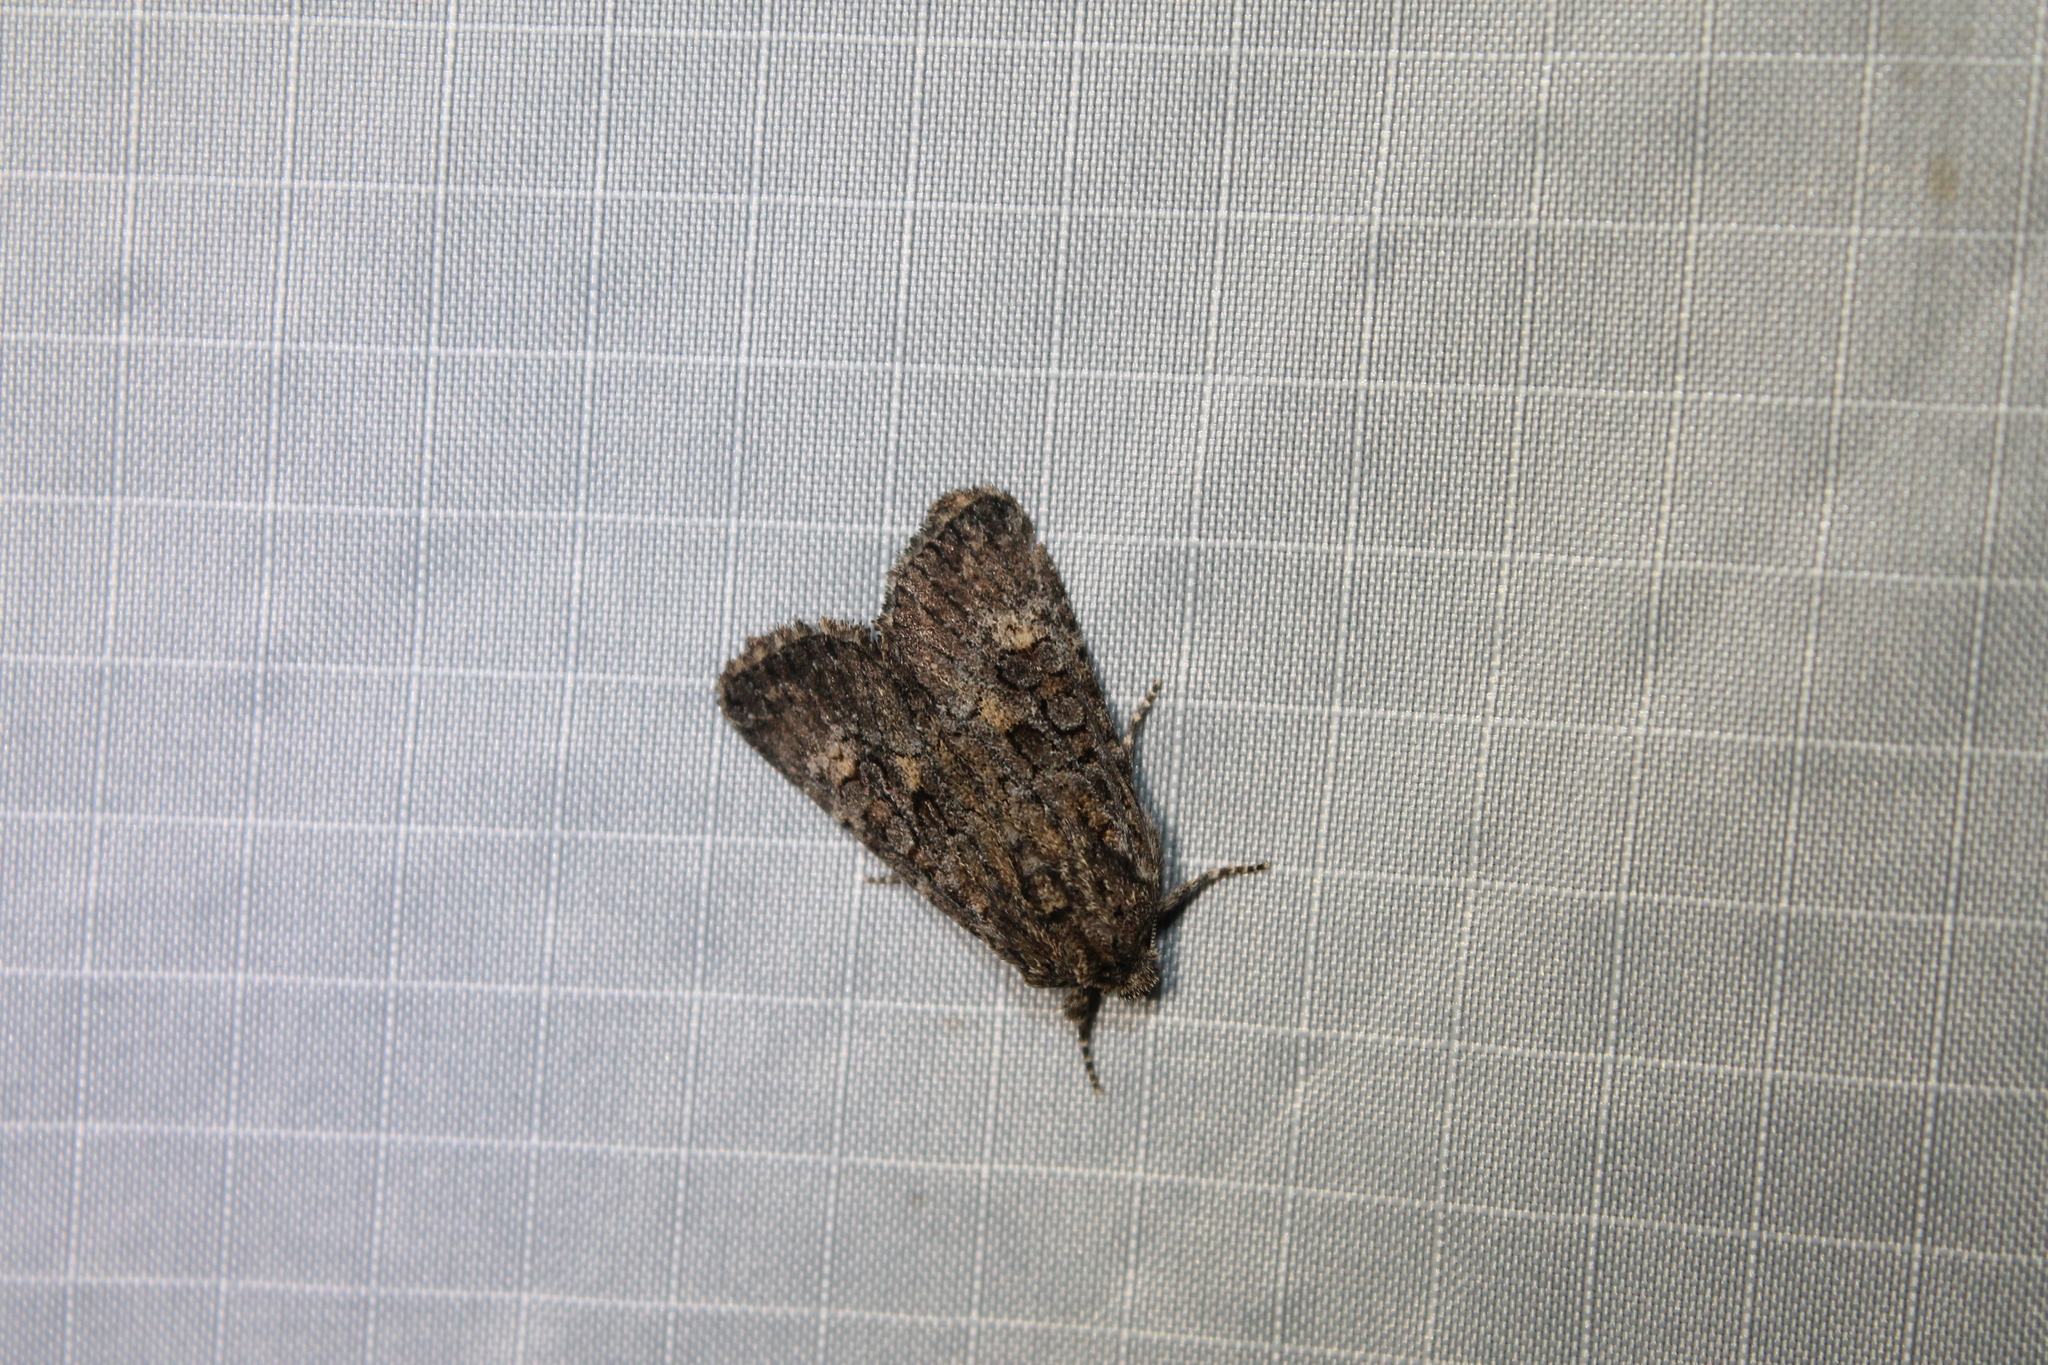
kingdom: Animalia
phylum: Arthropoda
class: Insecta
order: Lepidoptera
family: Noctuidae
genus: Aseptis
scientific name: Aseptis binotata
